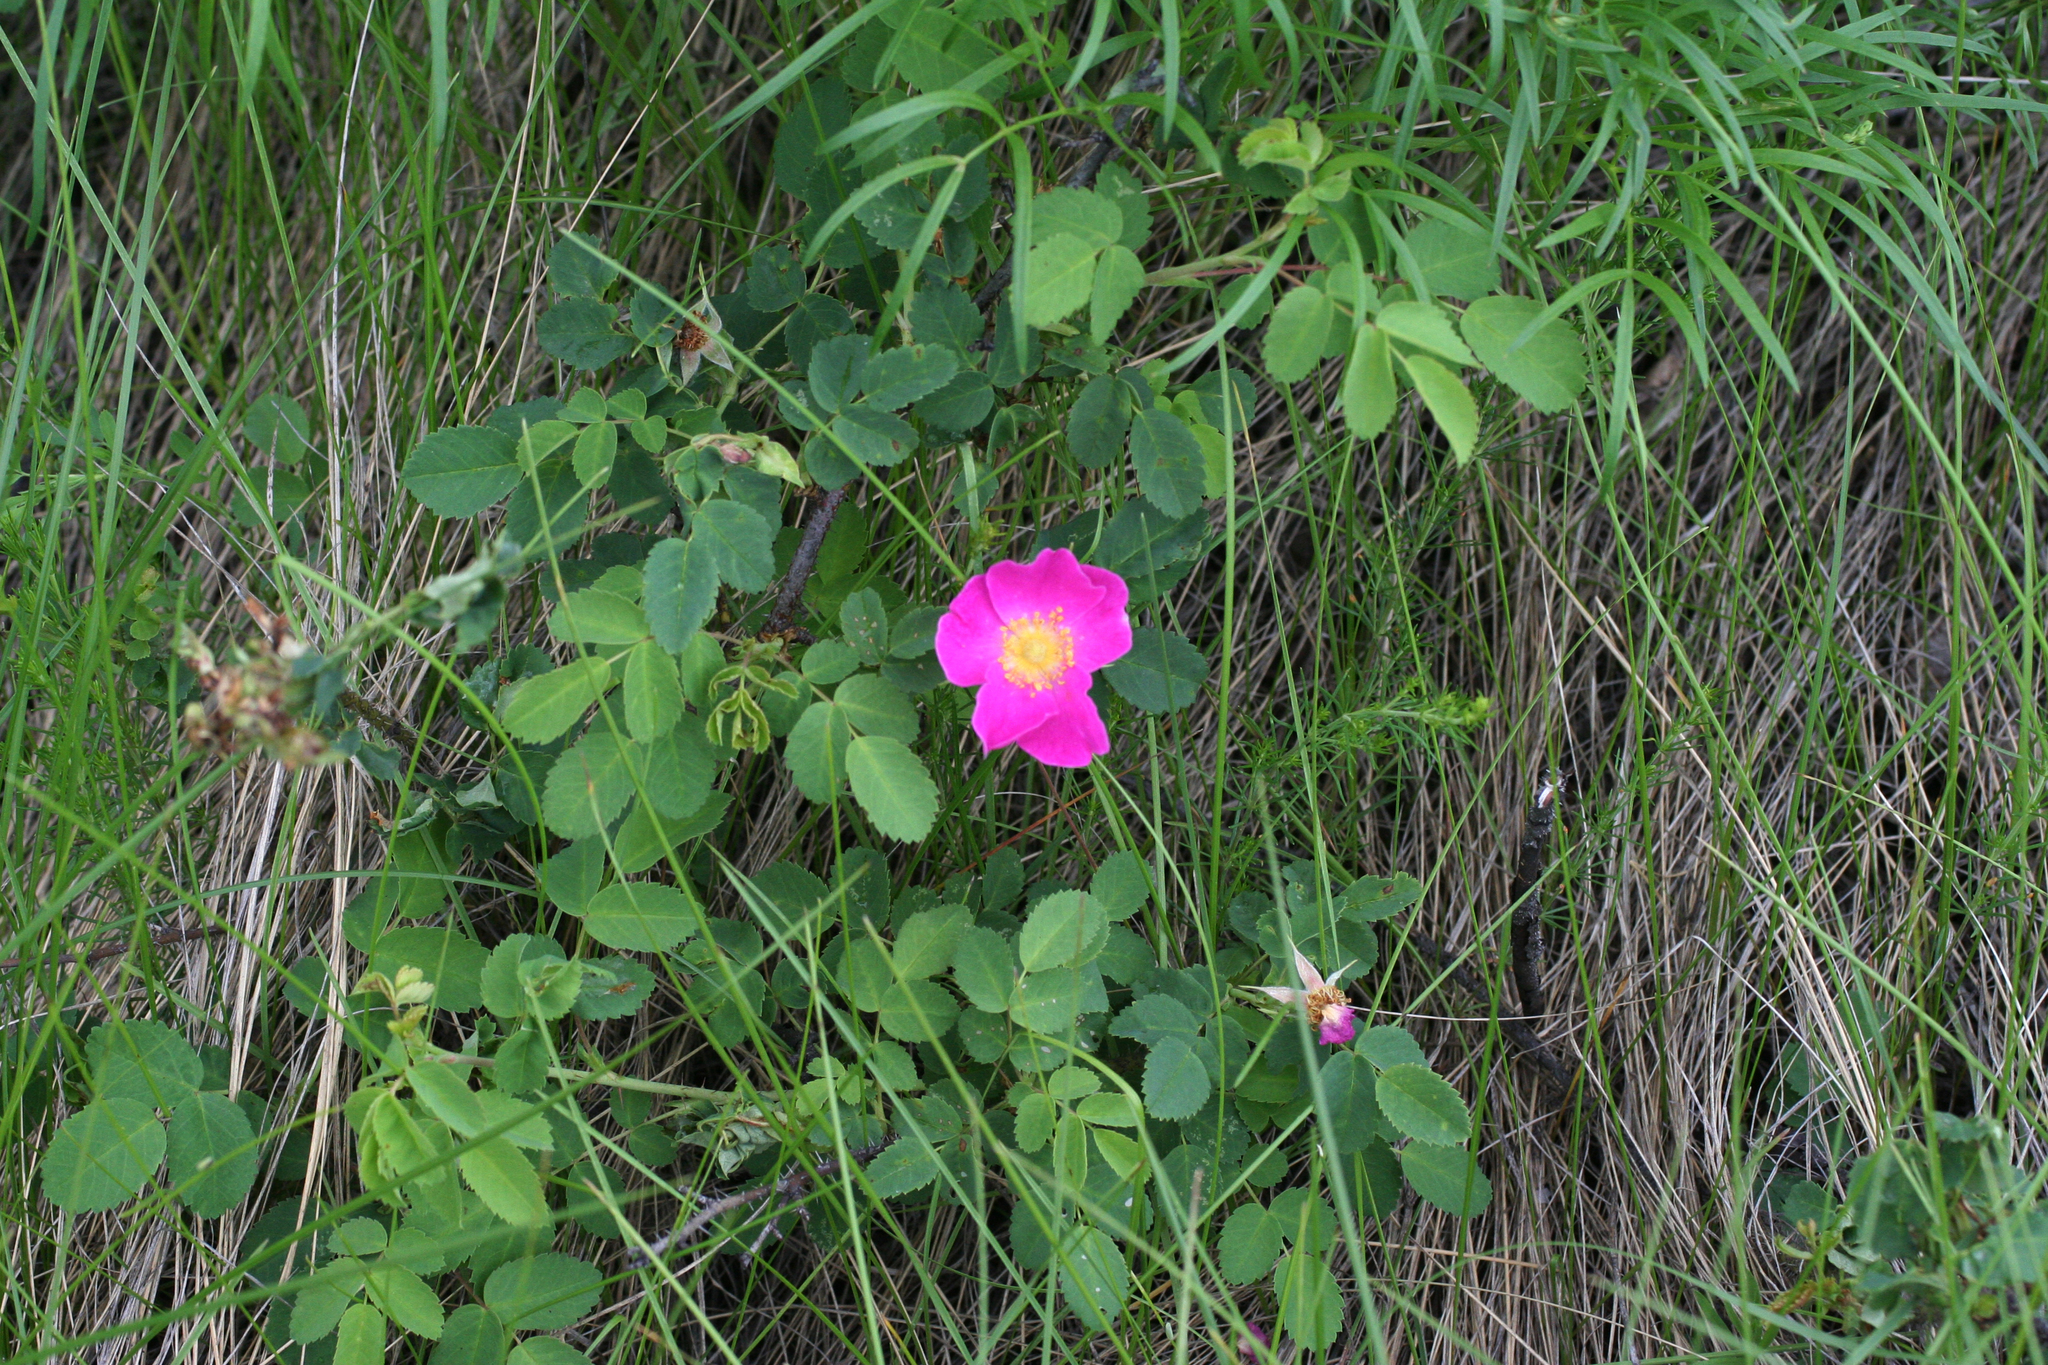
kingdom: Plantae
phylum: Tracheophyta
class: Magnoliopsida
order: Rosales
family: Rosaceae
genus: Rosa
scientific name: Rosa acicularis
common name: Prickly rose
